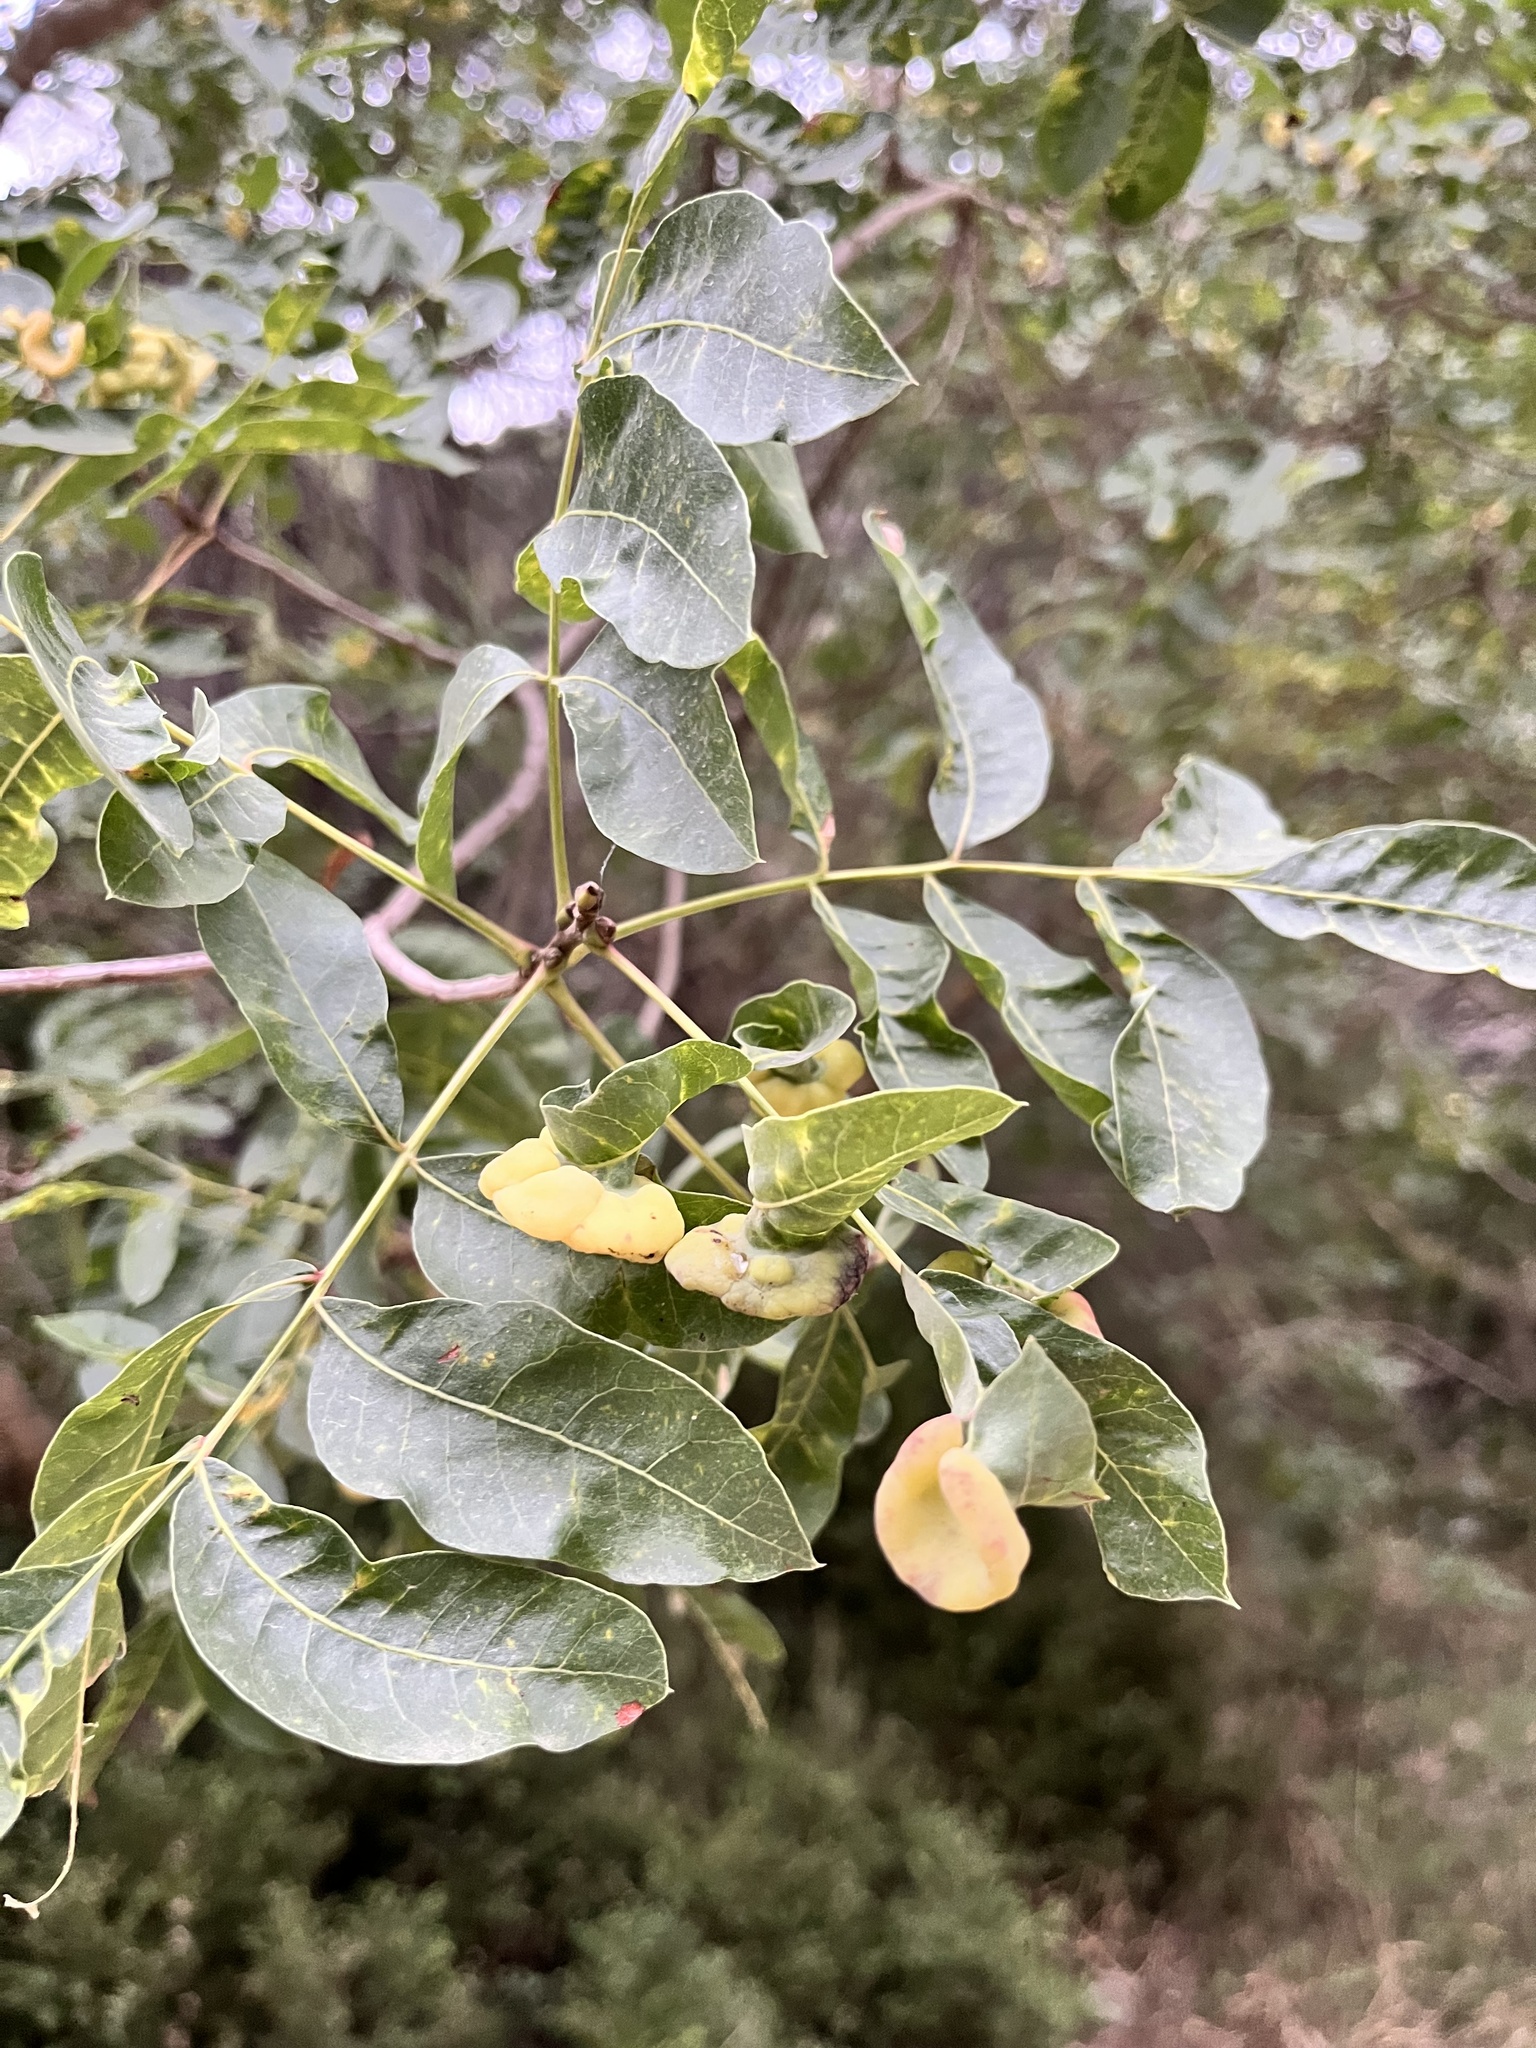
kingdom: Plantae
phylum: Tracheophyta
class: Magnoliopsida
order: Sapindales
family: Anacardiaceae
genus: Pistacia
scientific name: Pistacia terebinthus
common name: Terebinth
